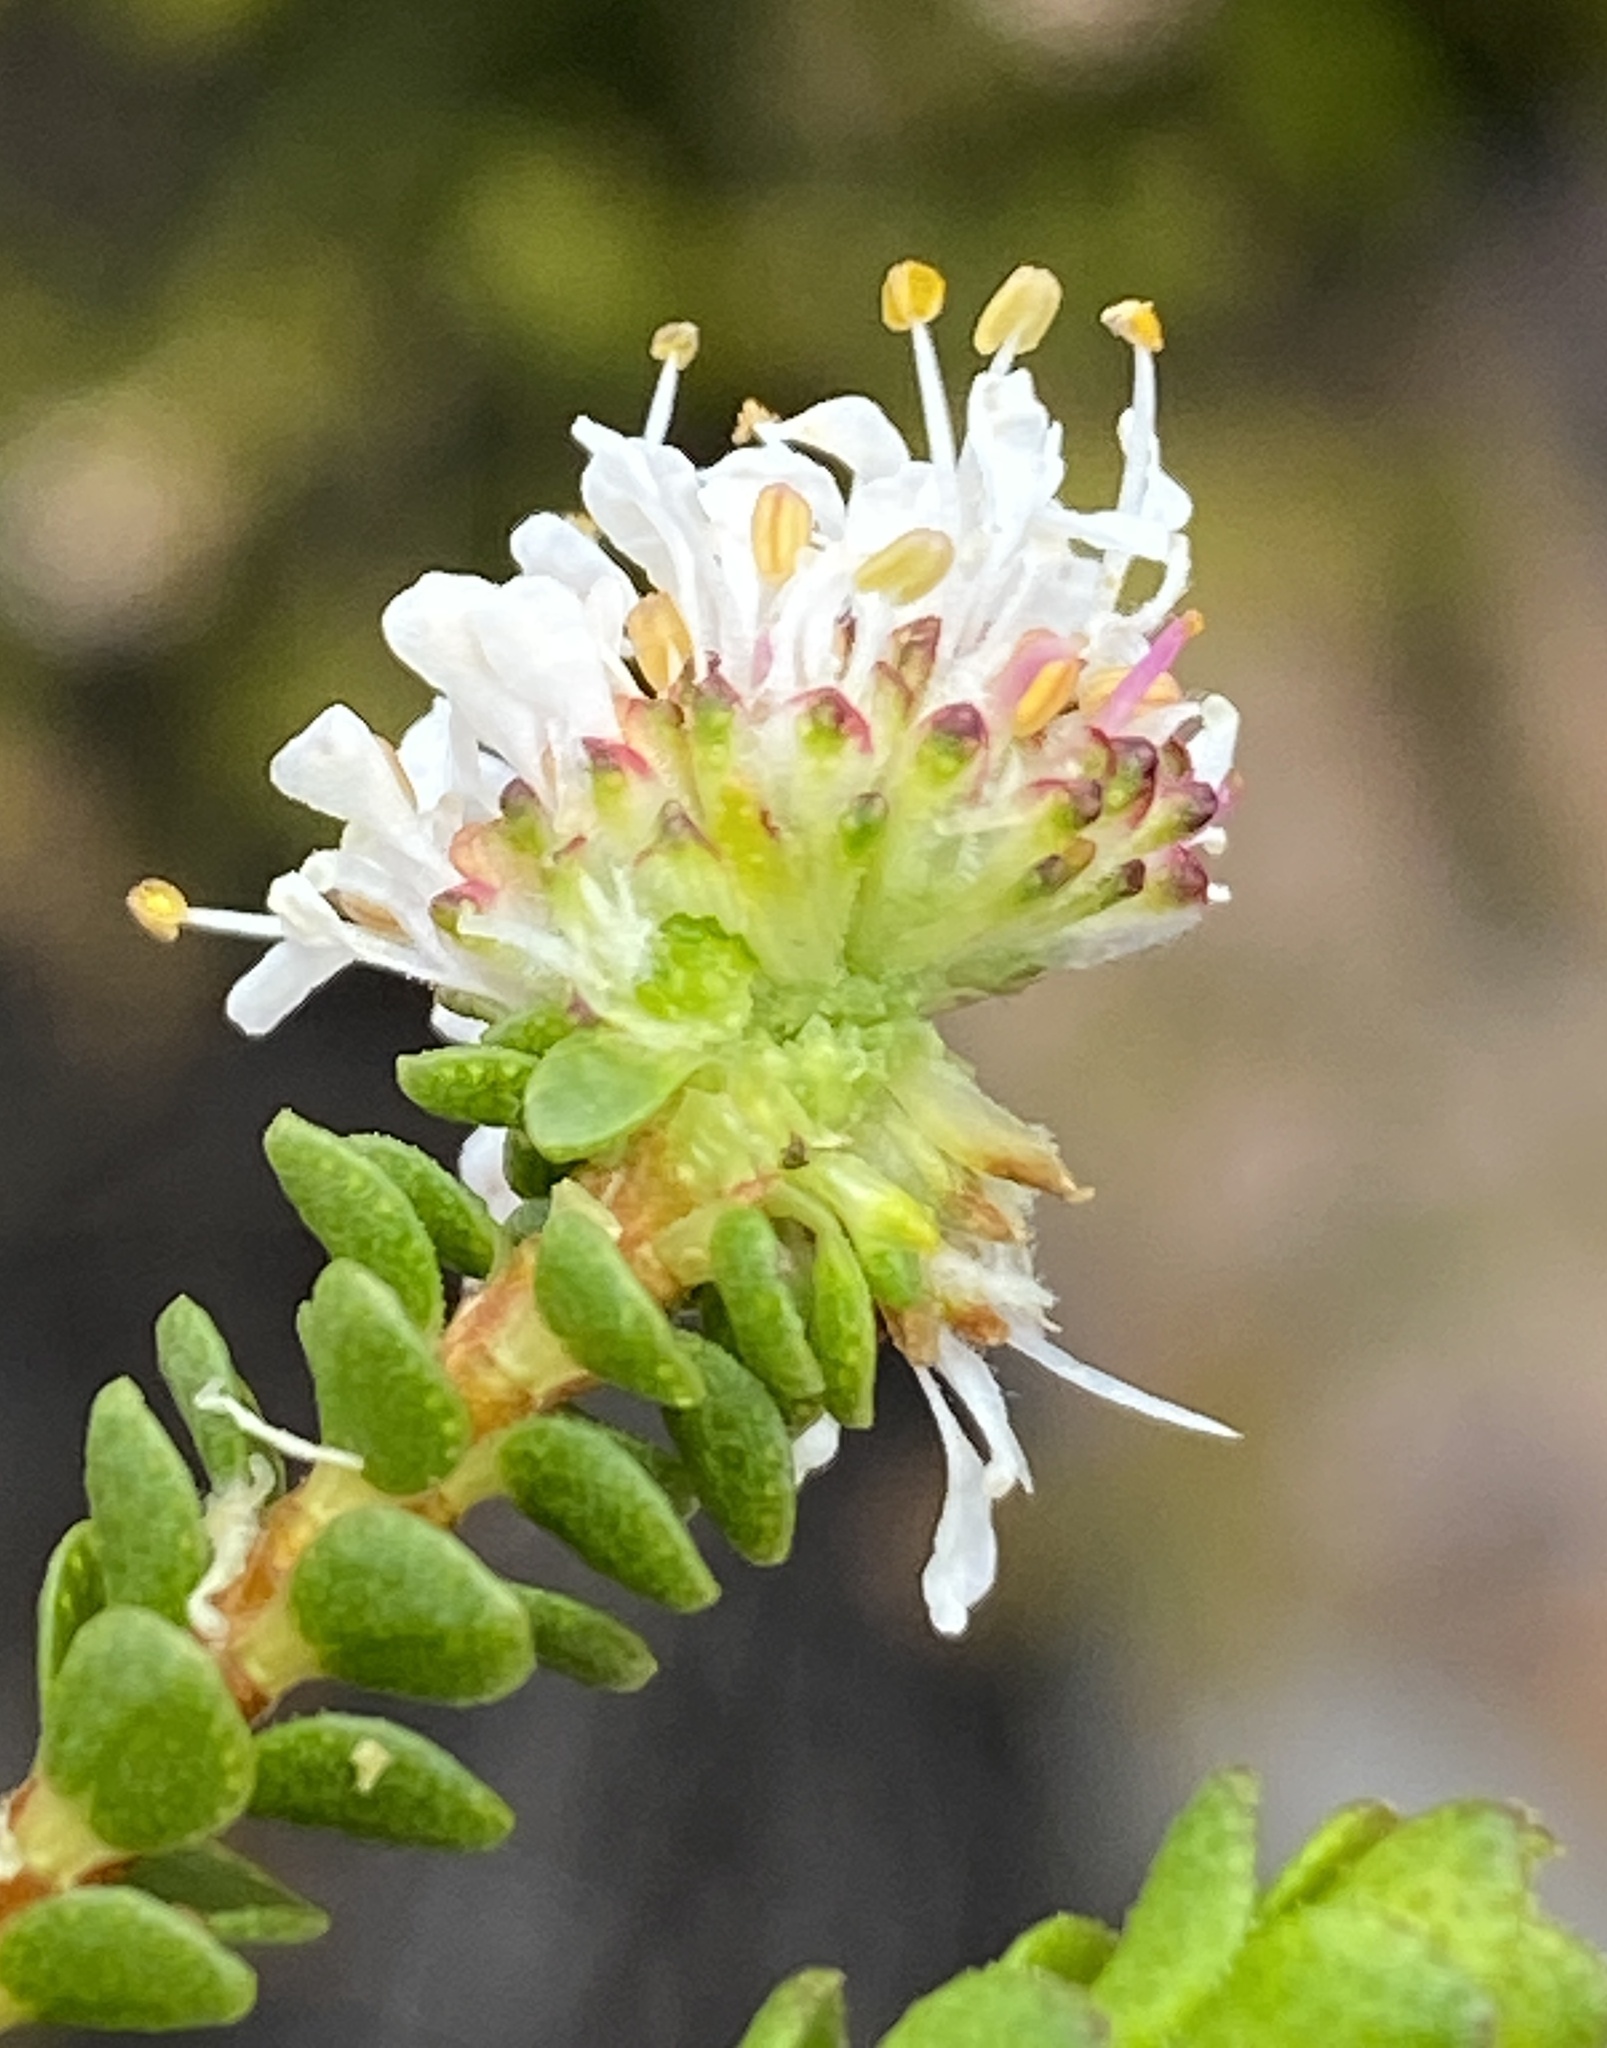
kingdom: Plantae
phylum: Tracheophyta
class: Magnoliopsida
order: Sapindales
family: Rutaceae
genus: Agathosma
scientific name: Agathosma alticola
